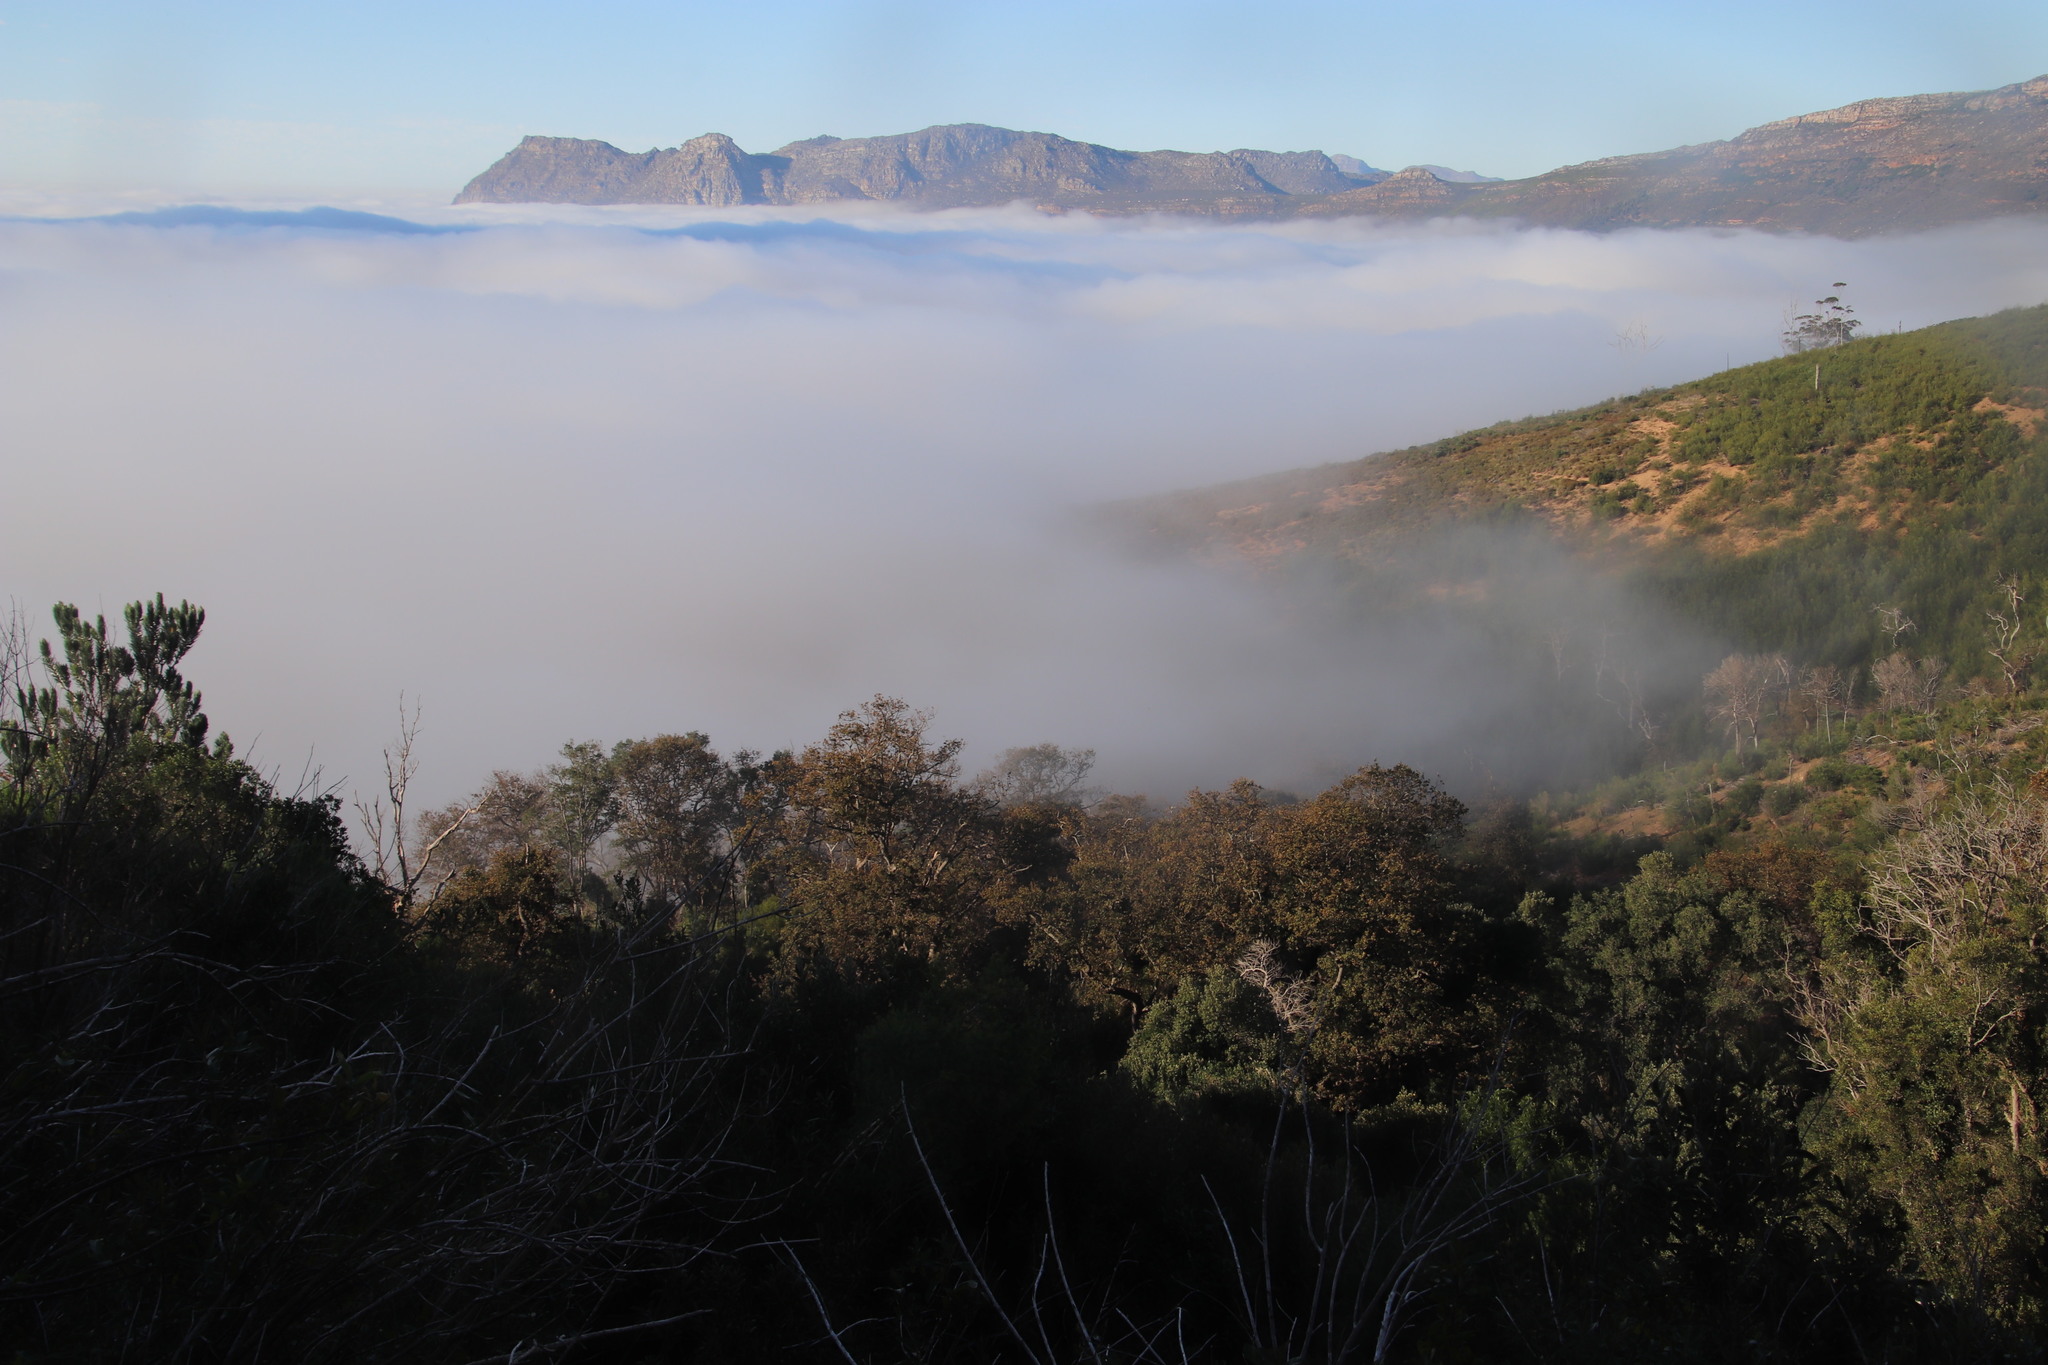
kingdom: Plantae
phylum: Tracheophyta
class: Magnoliopsida
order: Fagales
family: Fagaceae
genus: Quercus
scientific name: Quercus robur
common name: Pedunculate oak
